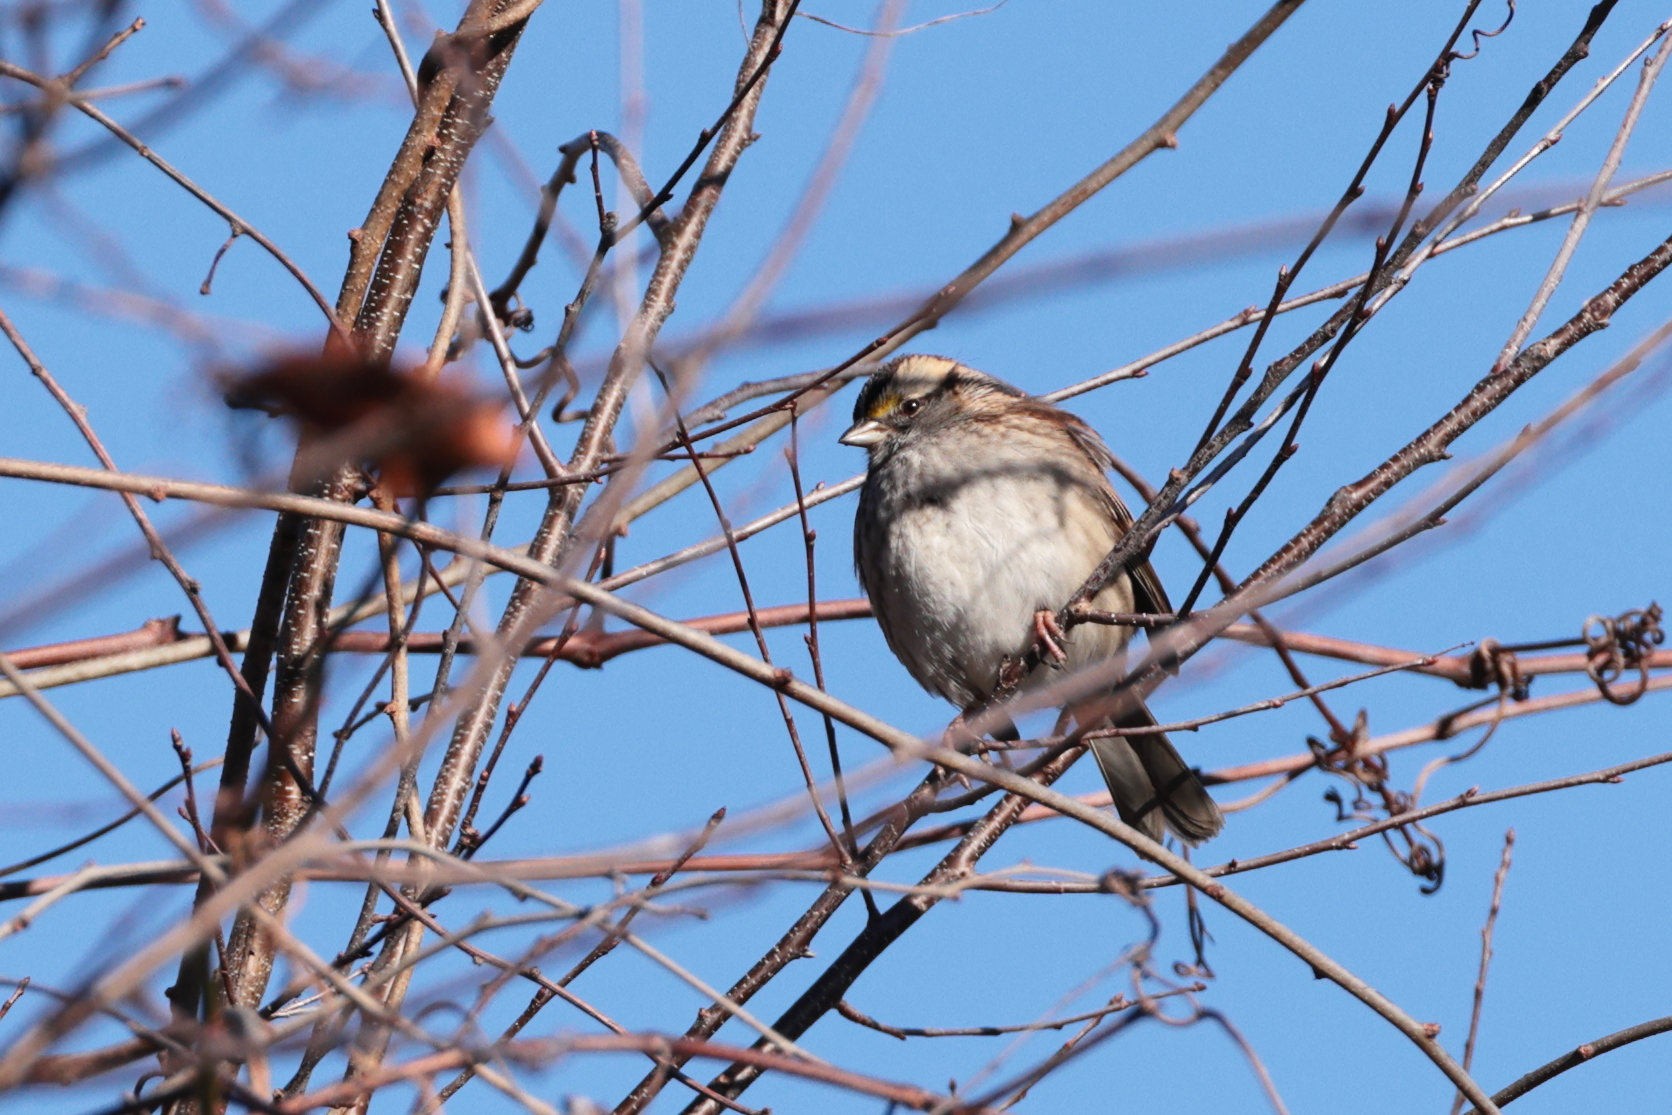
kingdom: Animalia
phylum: Chordata
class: Aves
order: Passeriformes
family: Passerellidae
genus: Zonotrichia
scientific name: Zonotrichia albicollis
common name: White-throated sparrow
